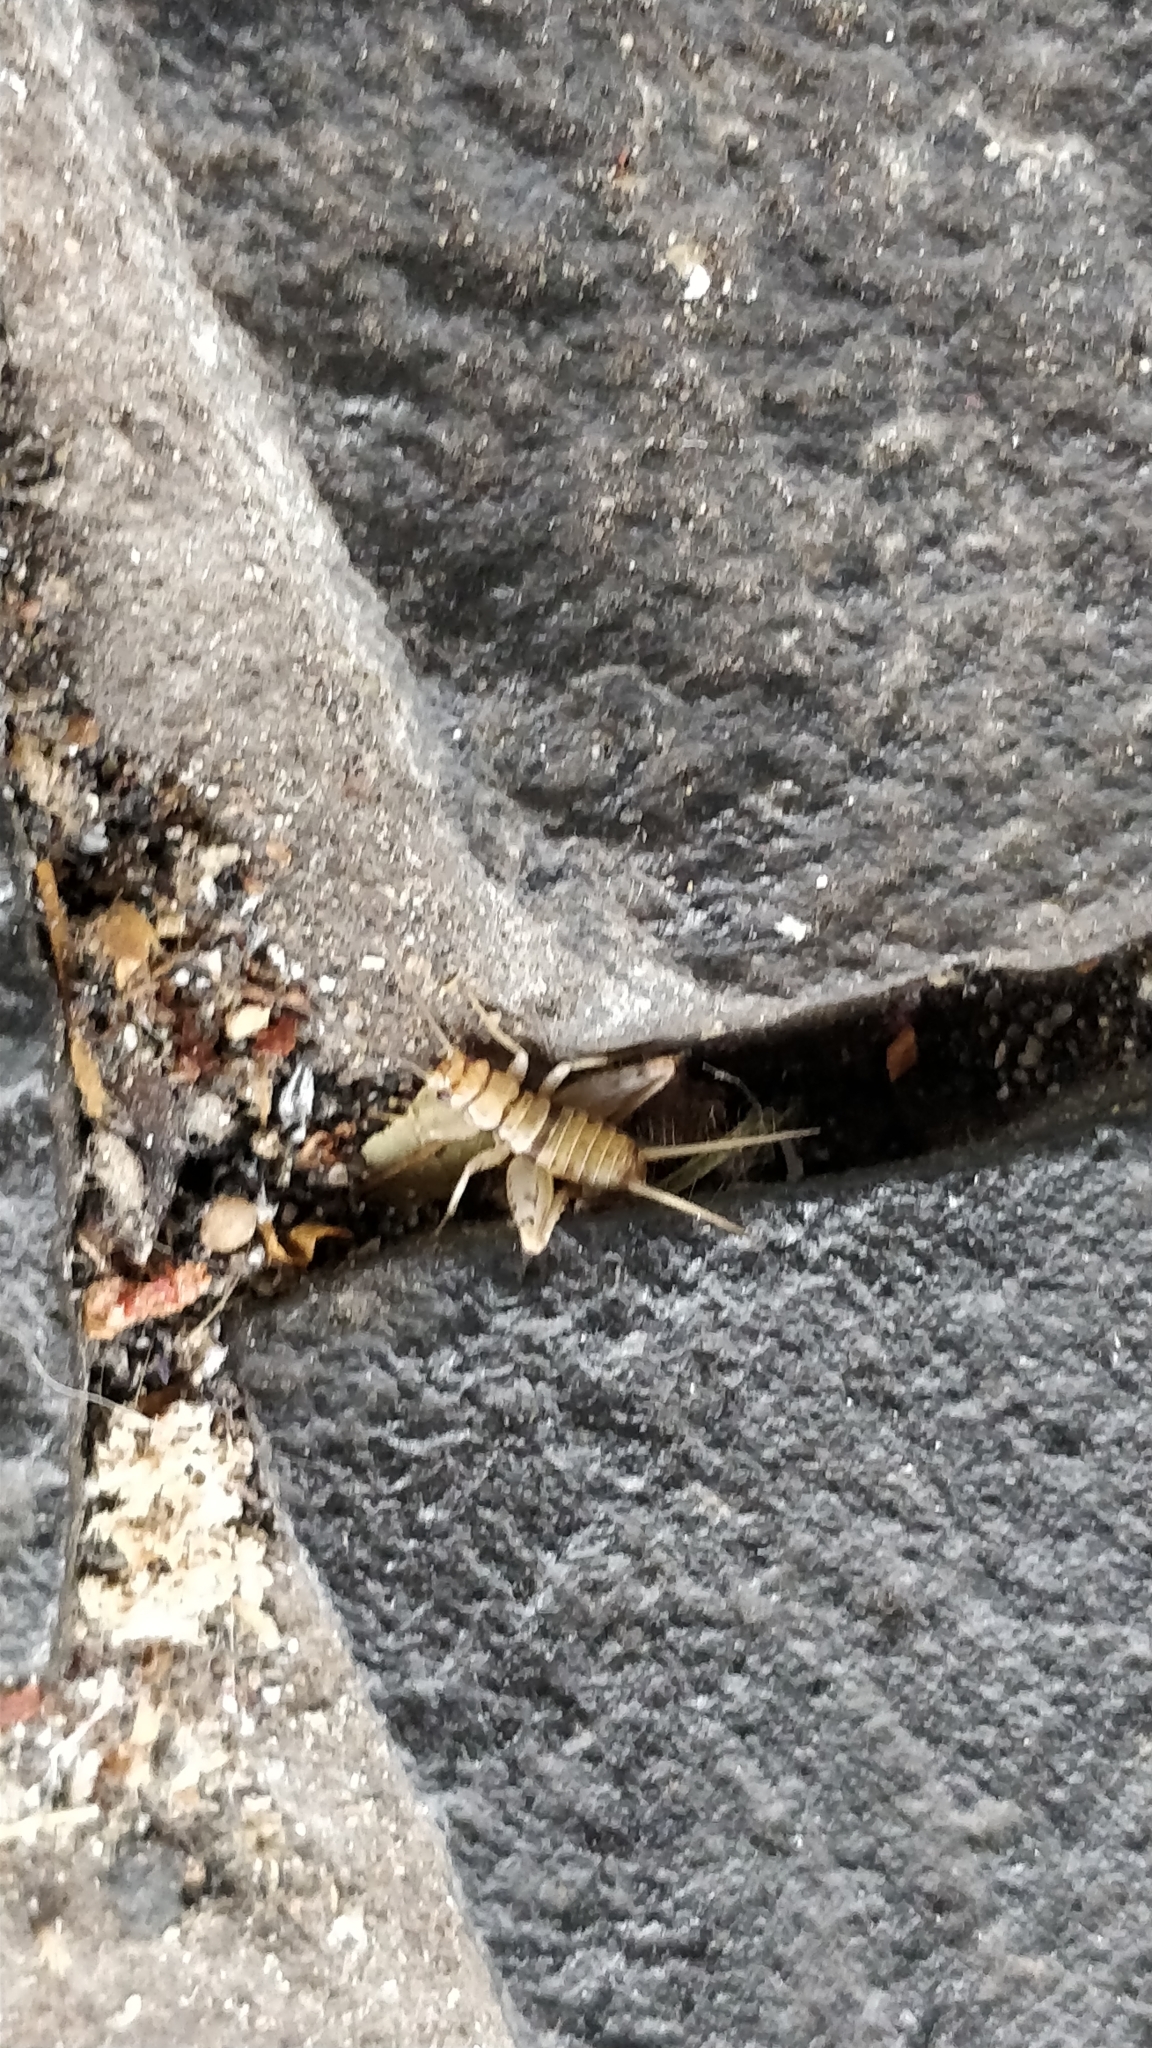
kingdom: Animalia
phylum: Arthropoda
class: Insecta
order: Orthoptera
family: Gryllidae
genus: Gryllodes
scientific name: Gryllodes sigillatus
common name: Tropical house cricket
